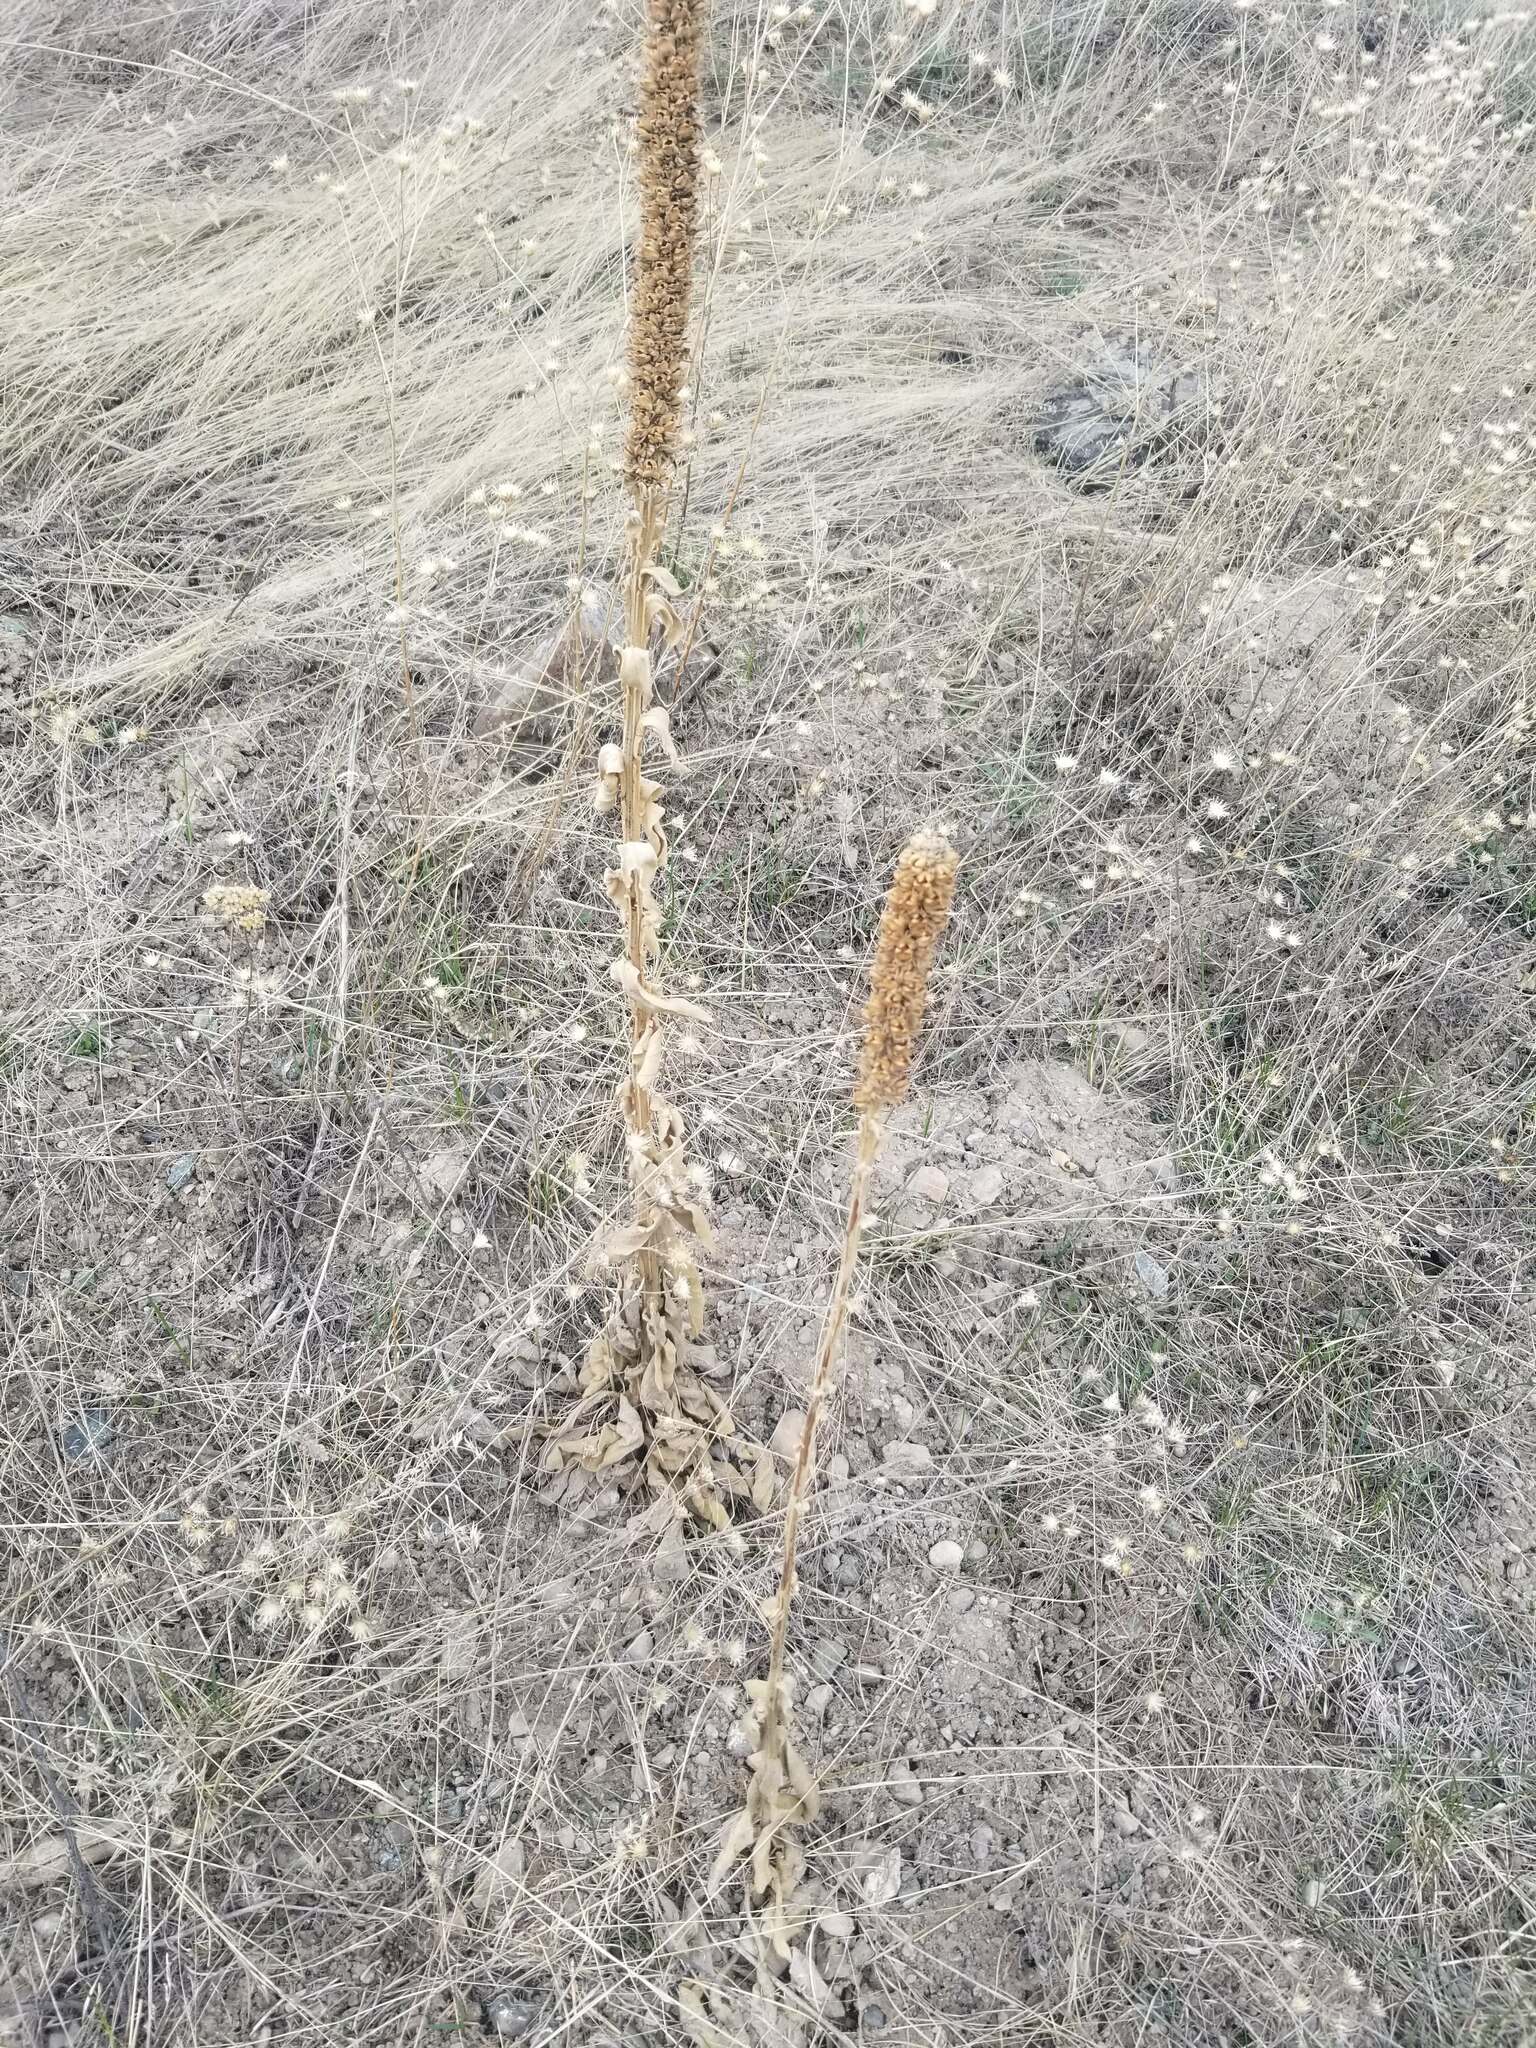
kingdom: Plantae
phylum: Tracheophyta
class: Magnoliopsida
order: Lamiales
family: Scrophulariaceae
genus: Verbascum
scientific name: Verbascum thapsus
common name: Common mullein
